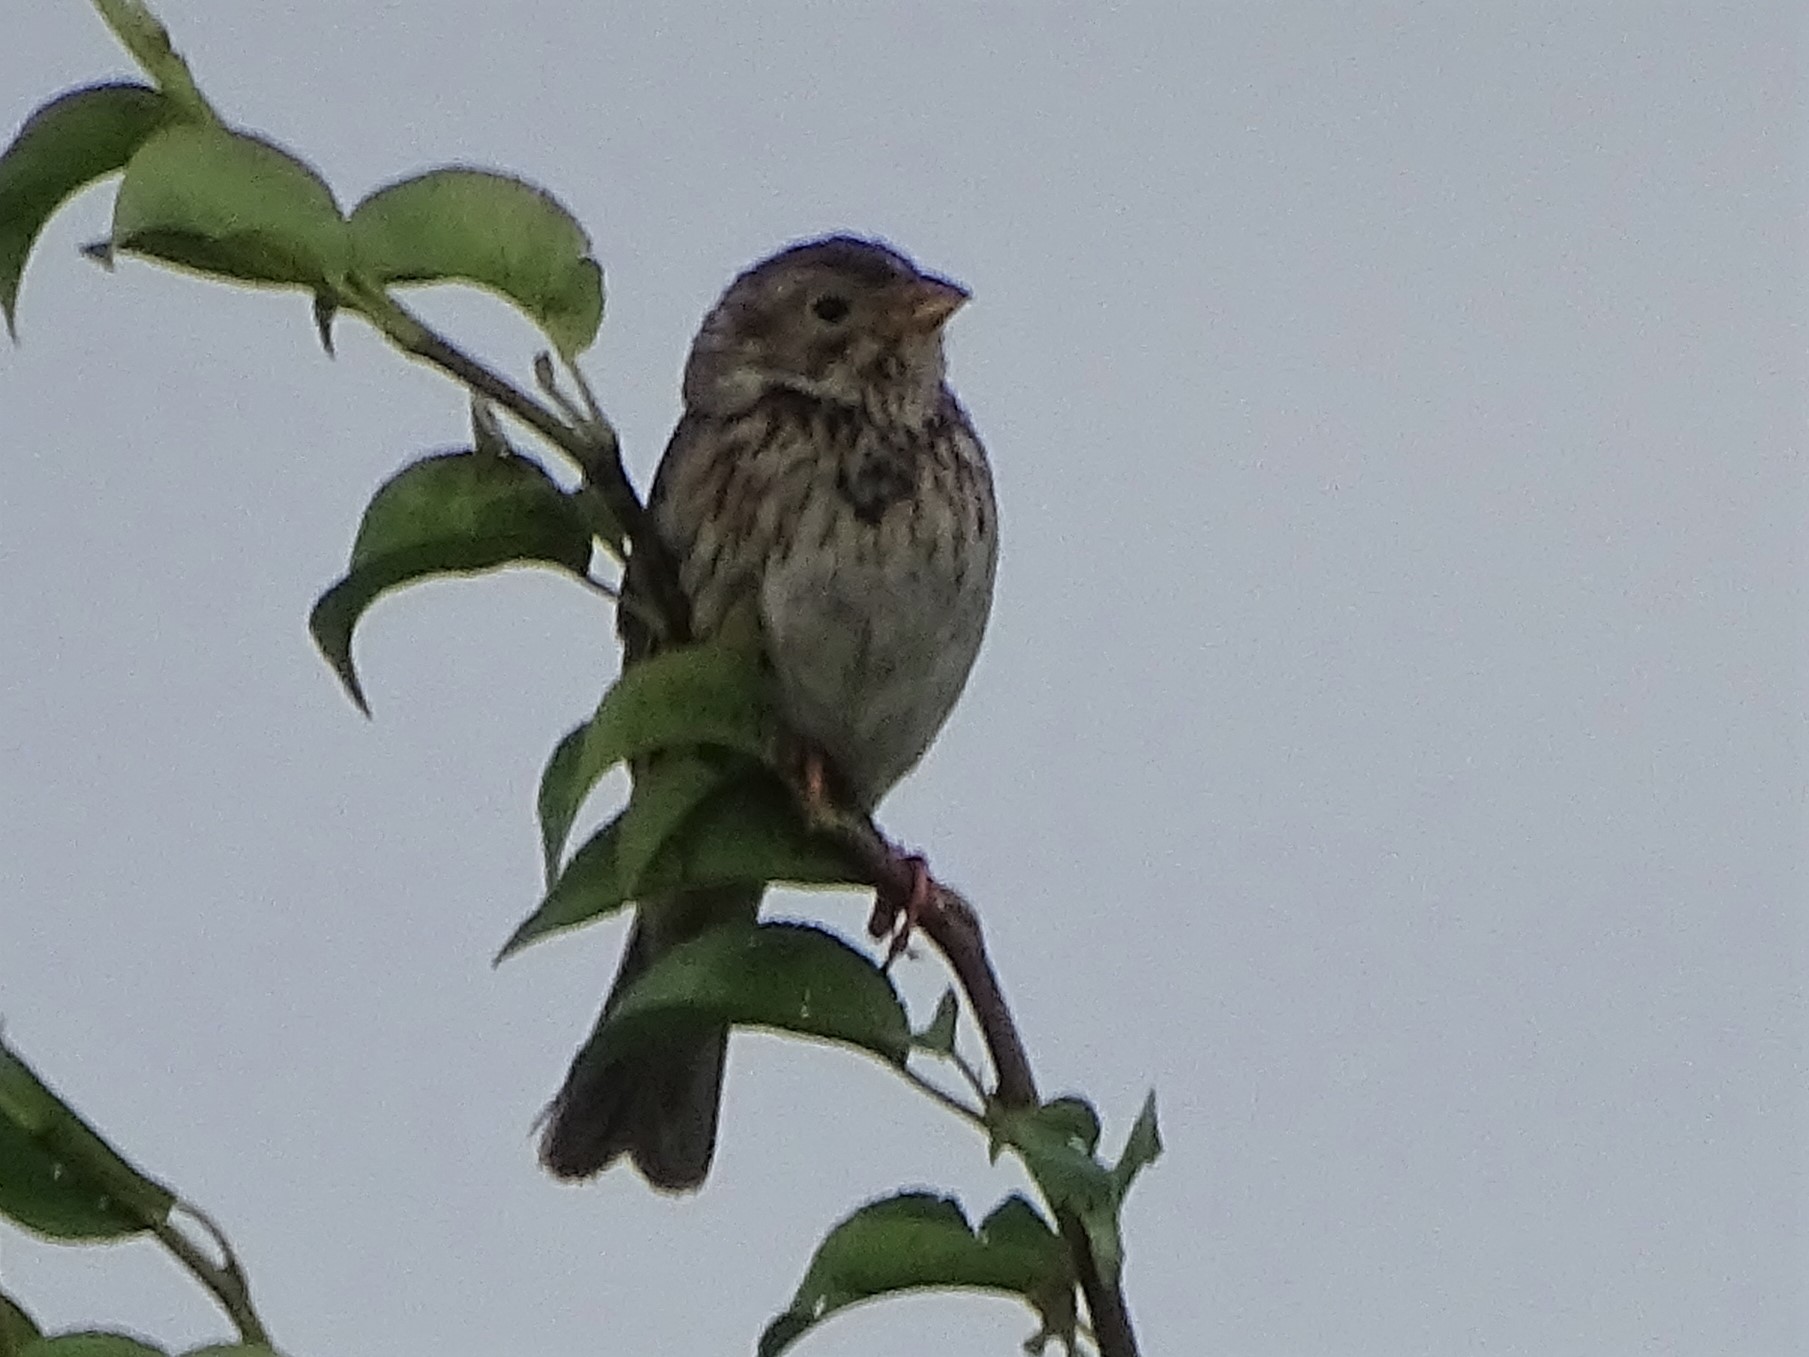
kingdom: Animalia
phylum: Chordata
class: Aves
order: Passeriformes
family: Emberizidae
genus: Emberiza
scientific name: Emberiza calandra
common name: Corn bunting
